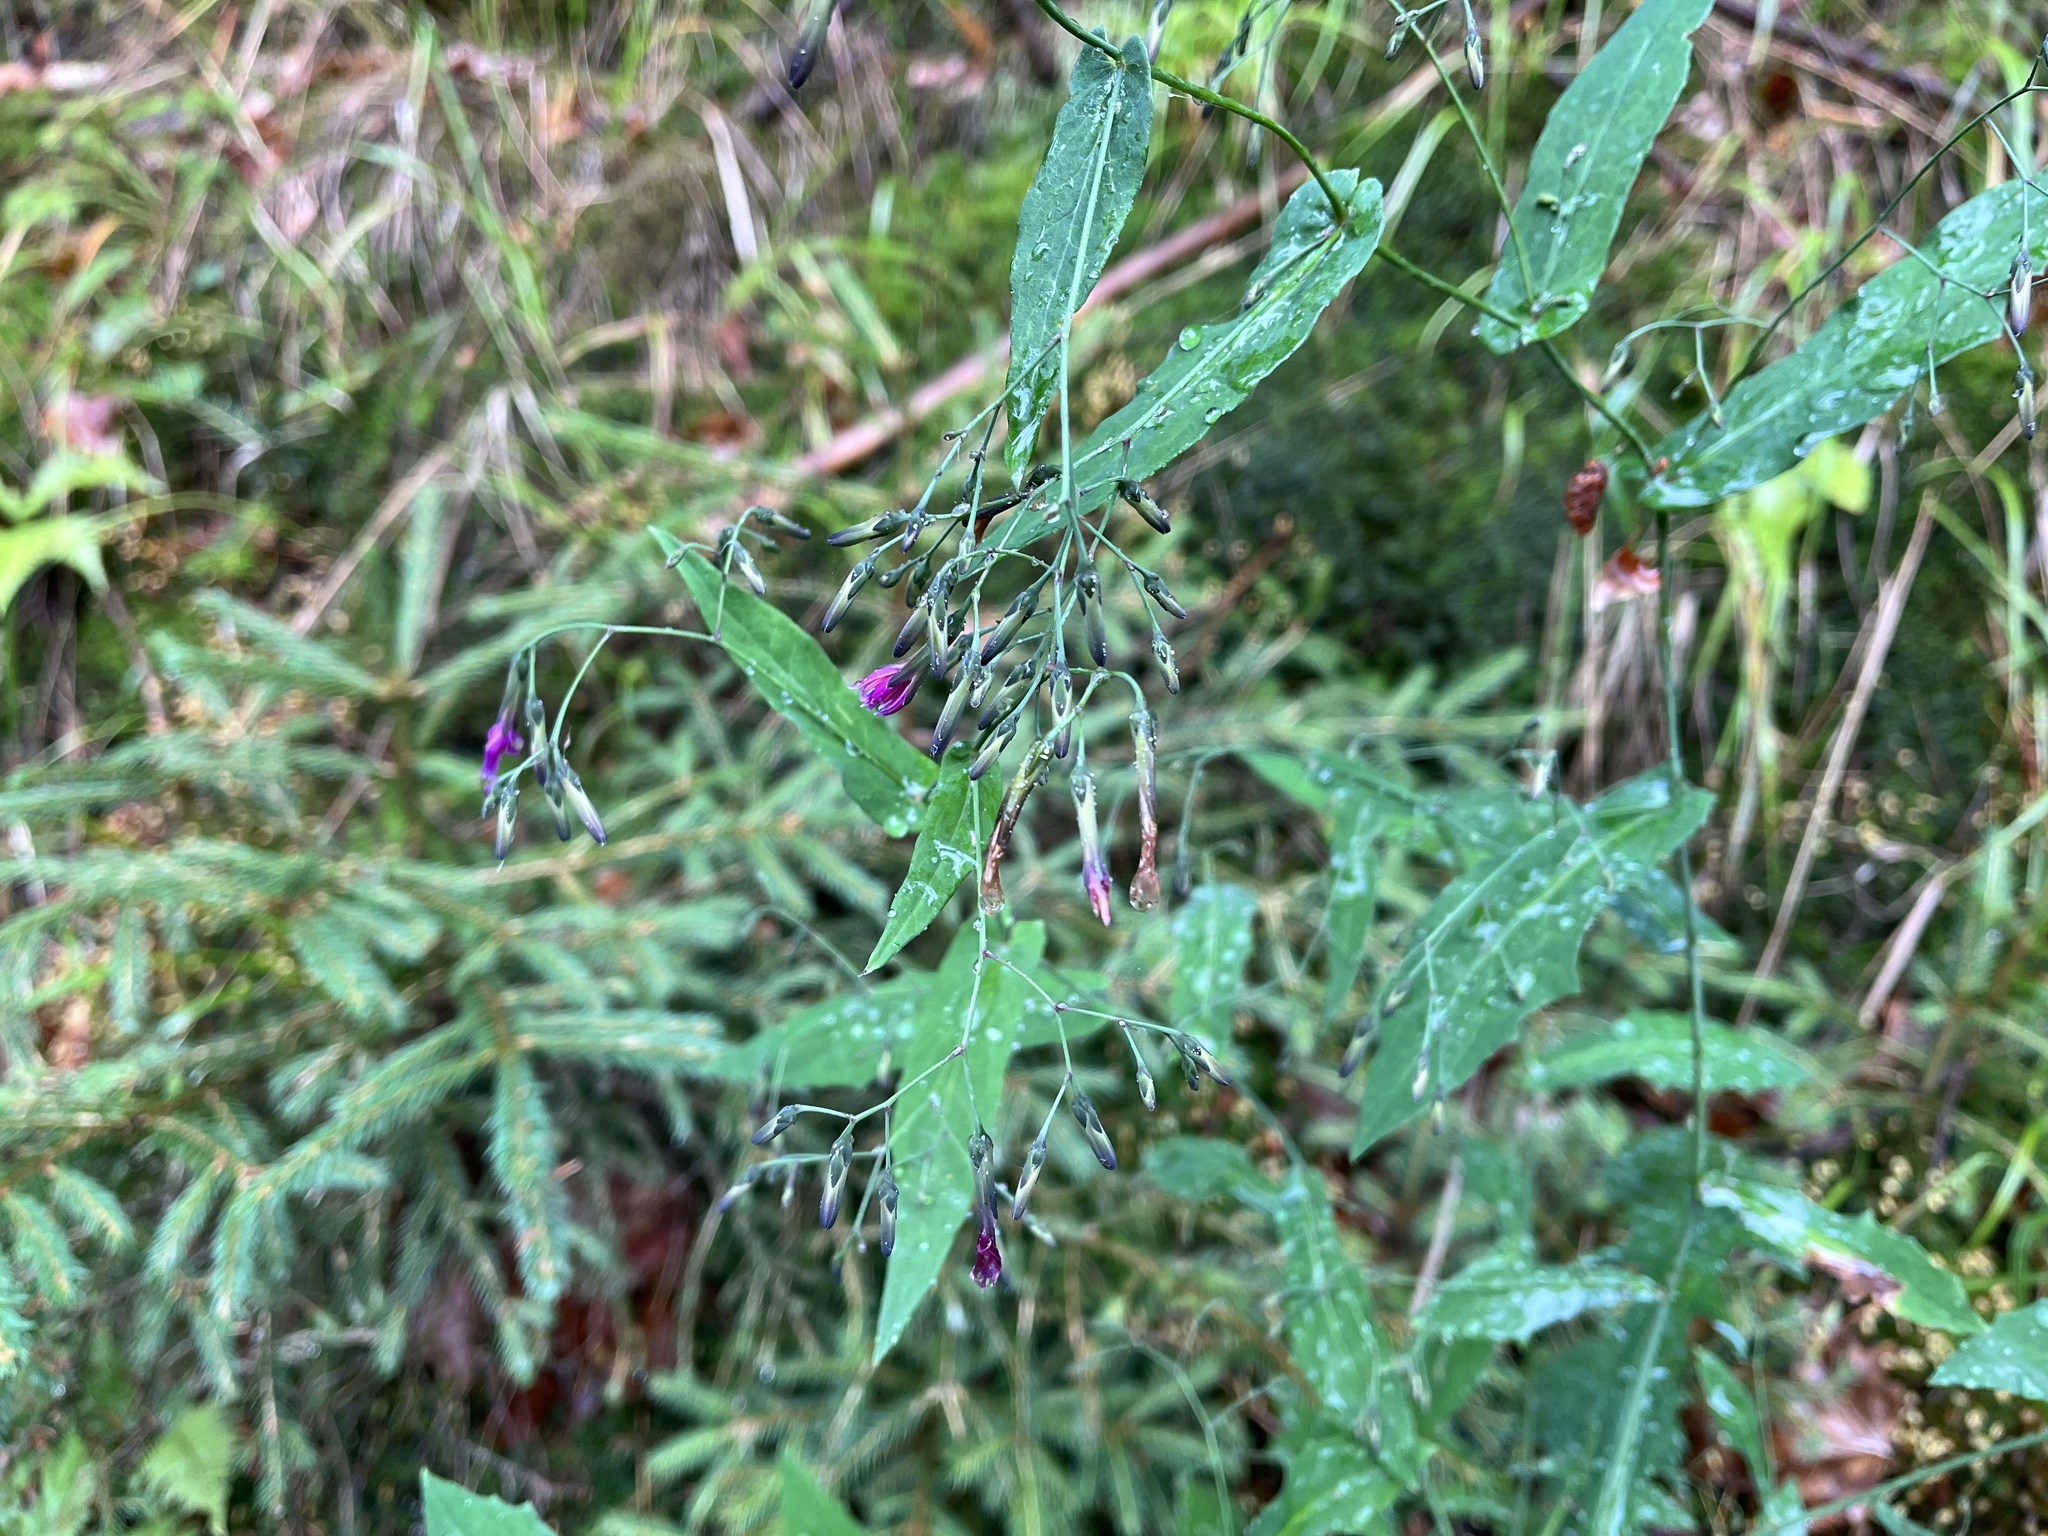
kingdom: Plantae
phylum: Tracheophyta
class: Magnoliopsida
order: Asterales
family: Asteraceae
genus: Prenanthes
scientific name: Prenanthes purpurea
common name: Purple lettuce
